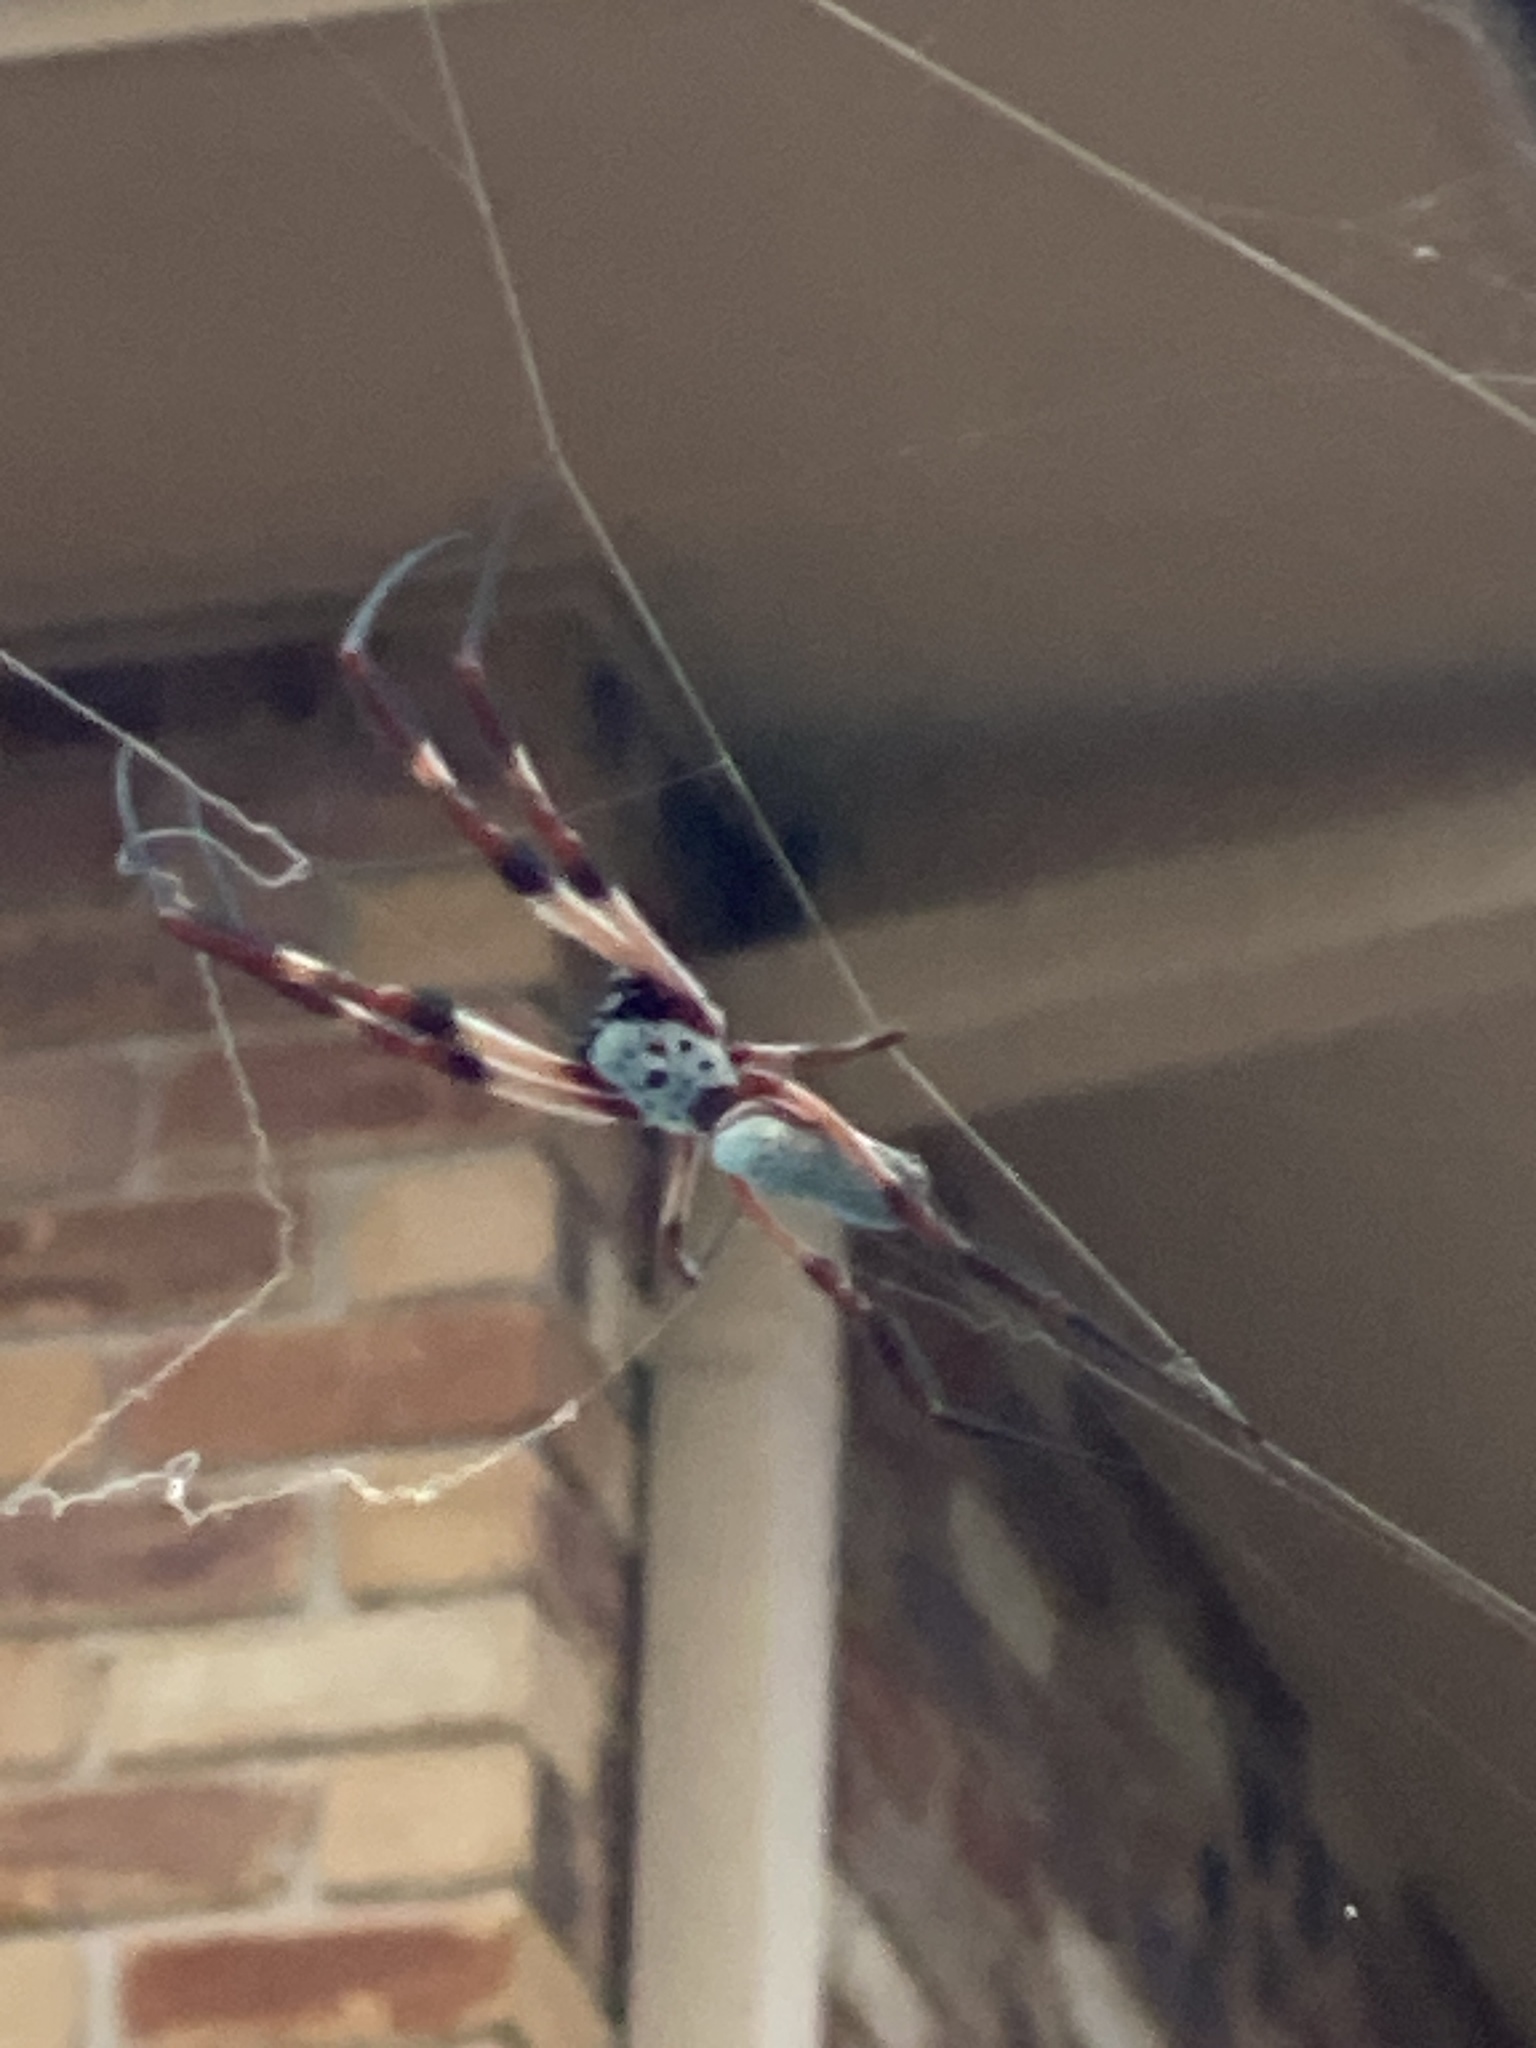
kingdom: Animalia
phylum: Arthropoda
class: Arachnida
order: Araneae
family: Araneidae
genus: Trichonephila
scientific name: Trichonephila edulis
